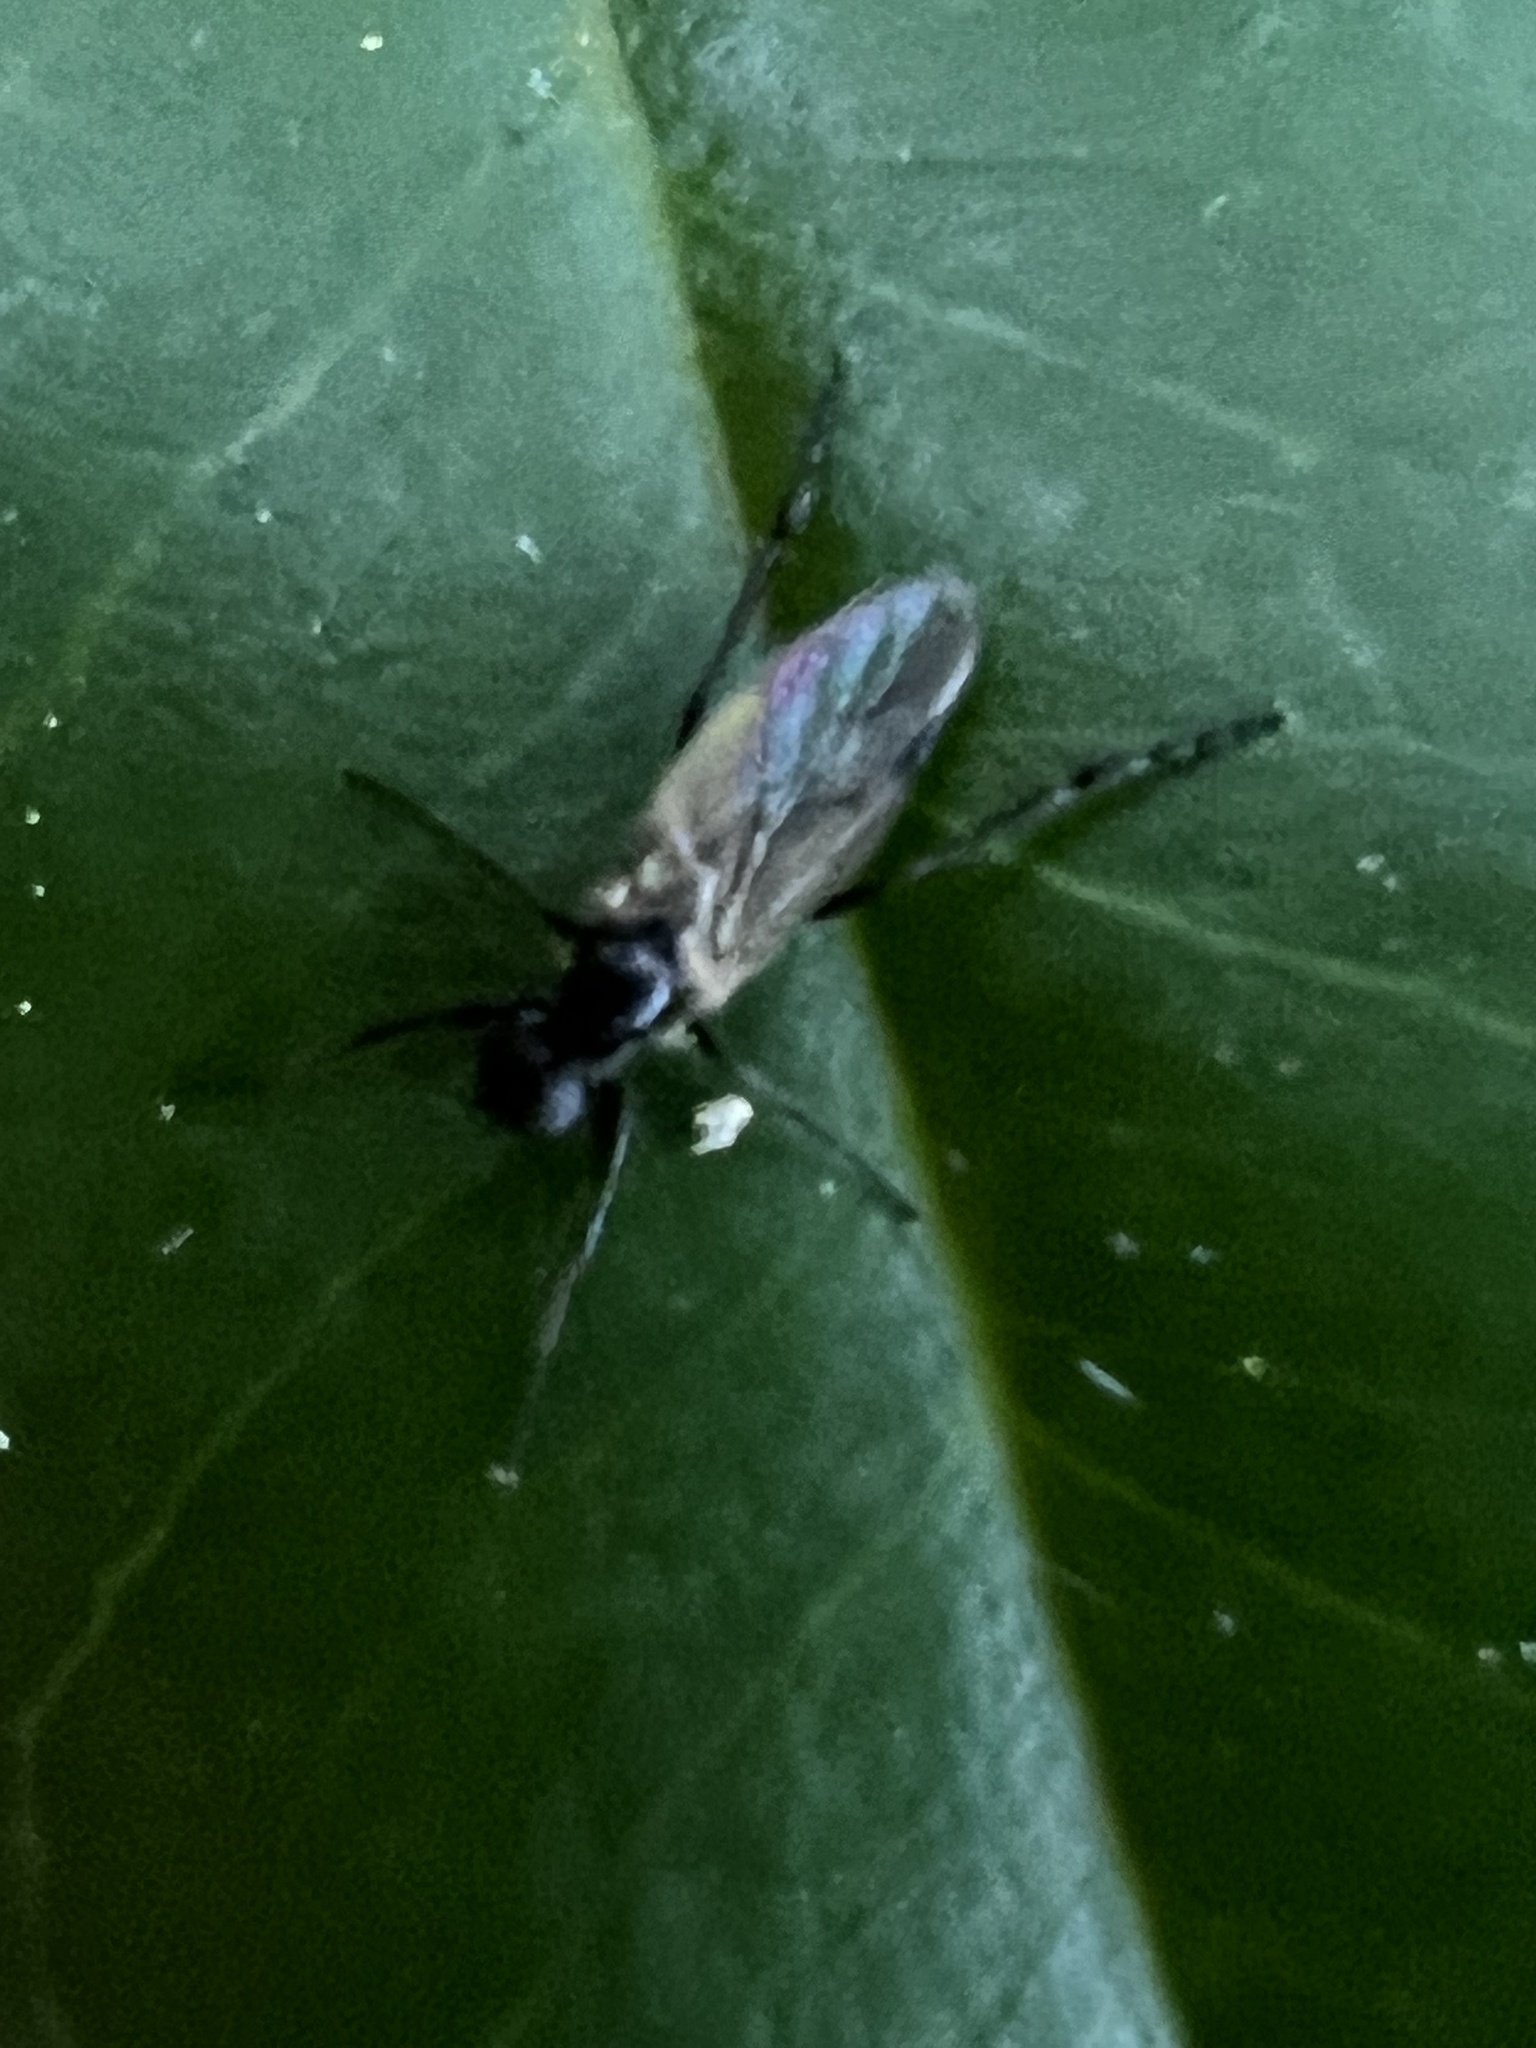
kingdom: Animalia
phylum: Arthropoda
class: Insecta
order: Diptera
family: Bibionidae
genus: Bibio
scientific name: Bibio
